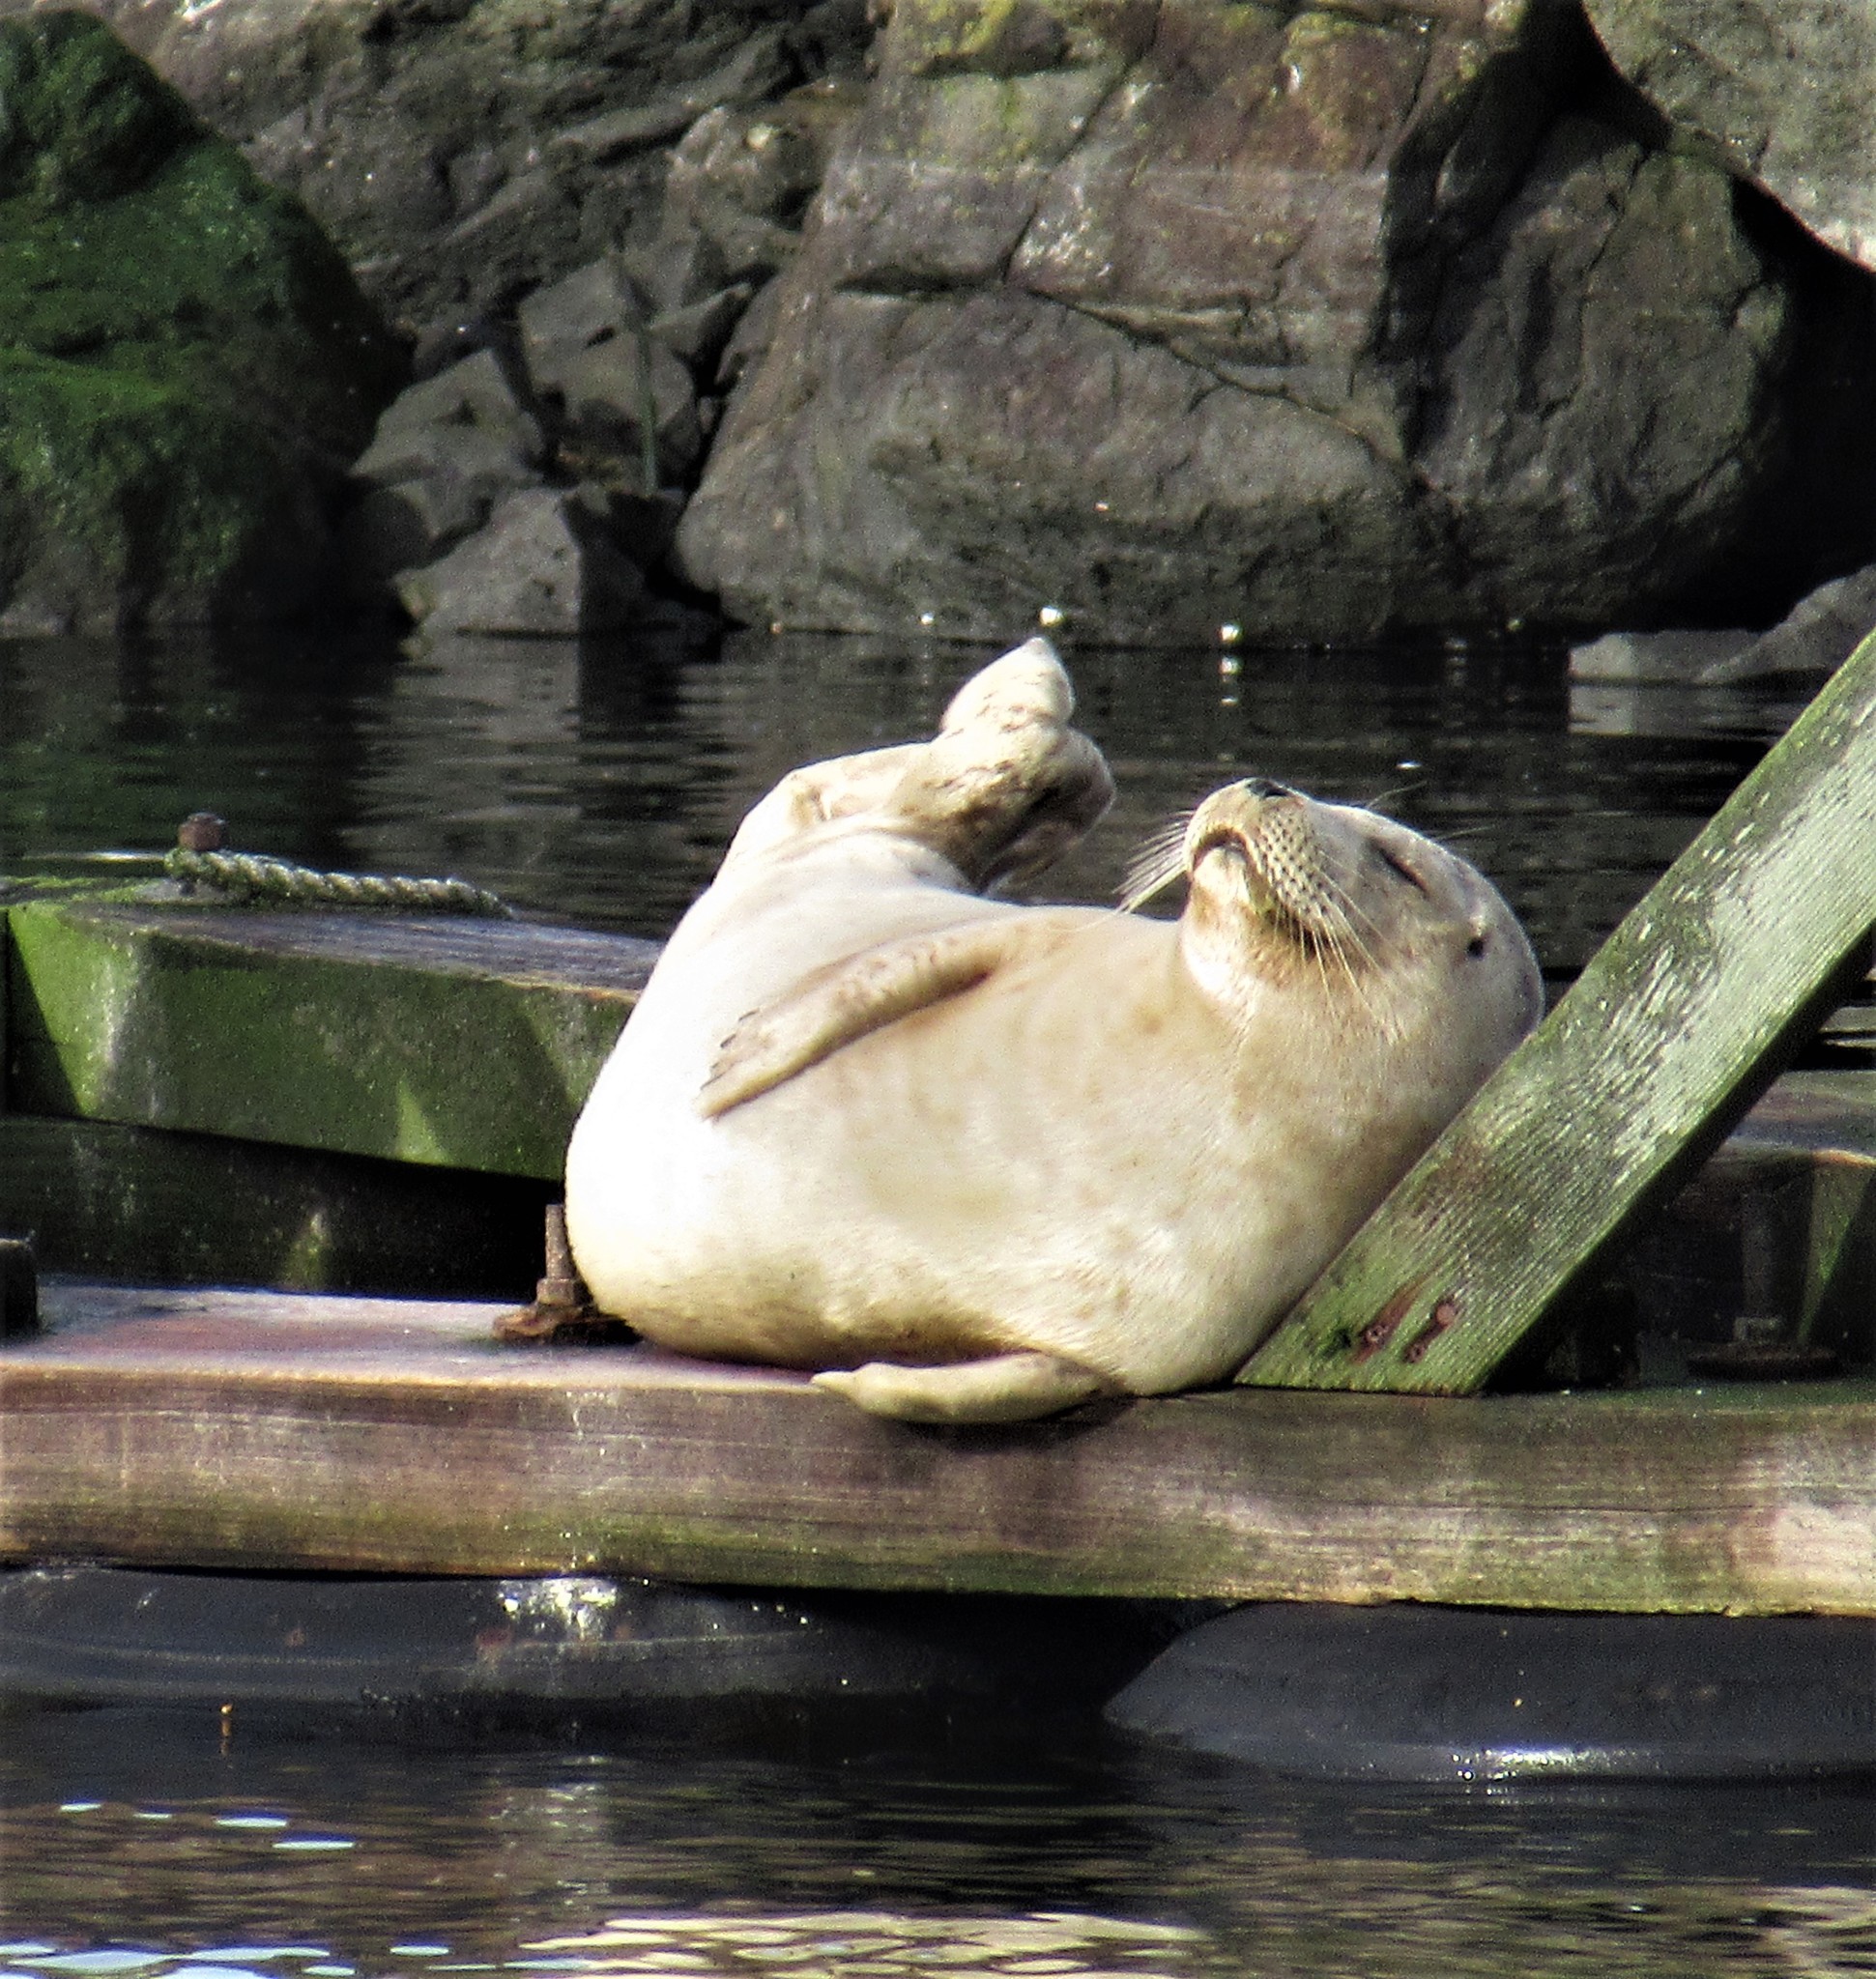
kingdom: Animalia
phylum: Chordata
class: Mammalia
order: Carnivora
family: Phocidae
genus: Phoca
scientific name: Phoca vitulina
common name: Harbor seal
